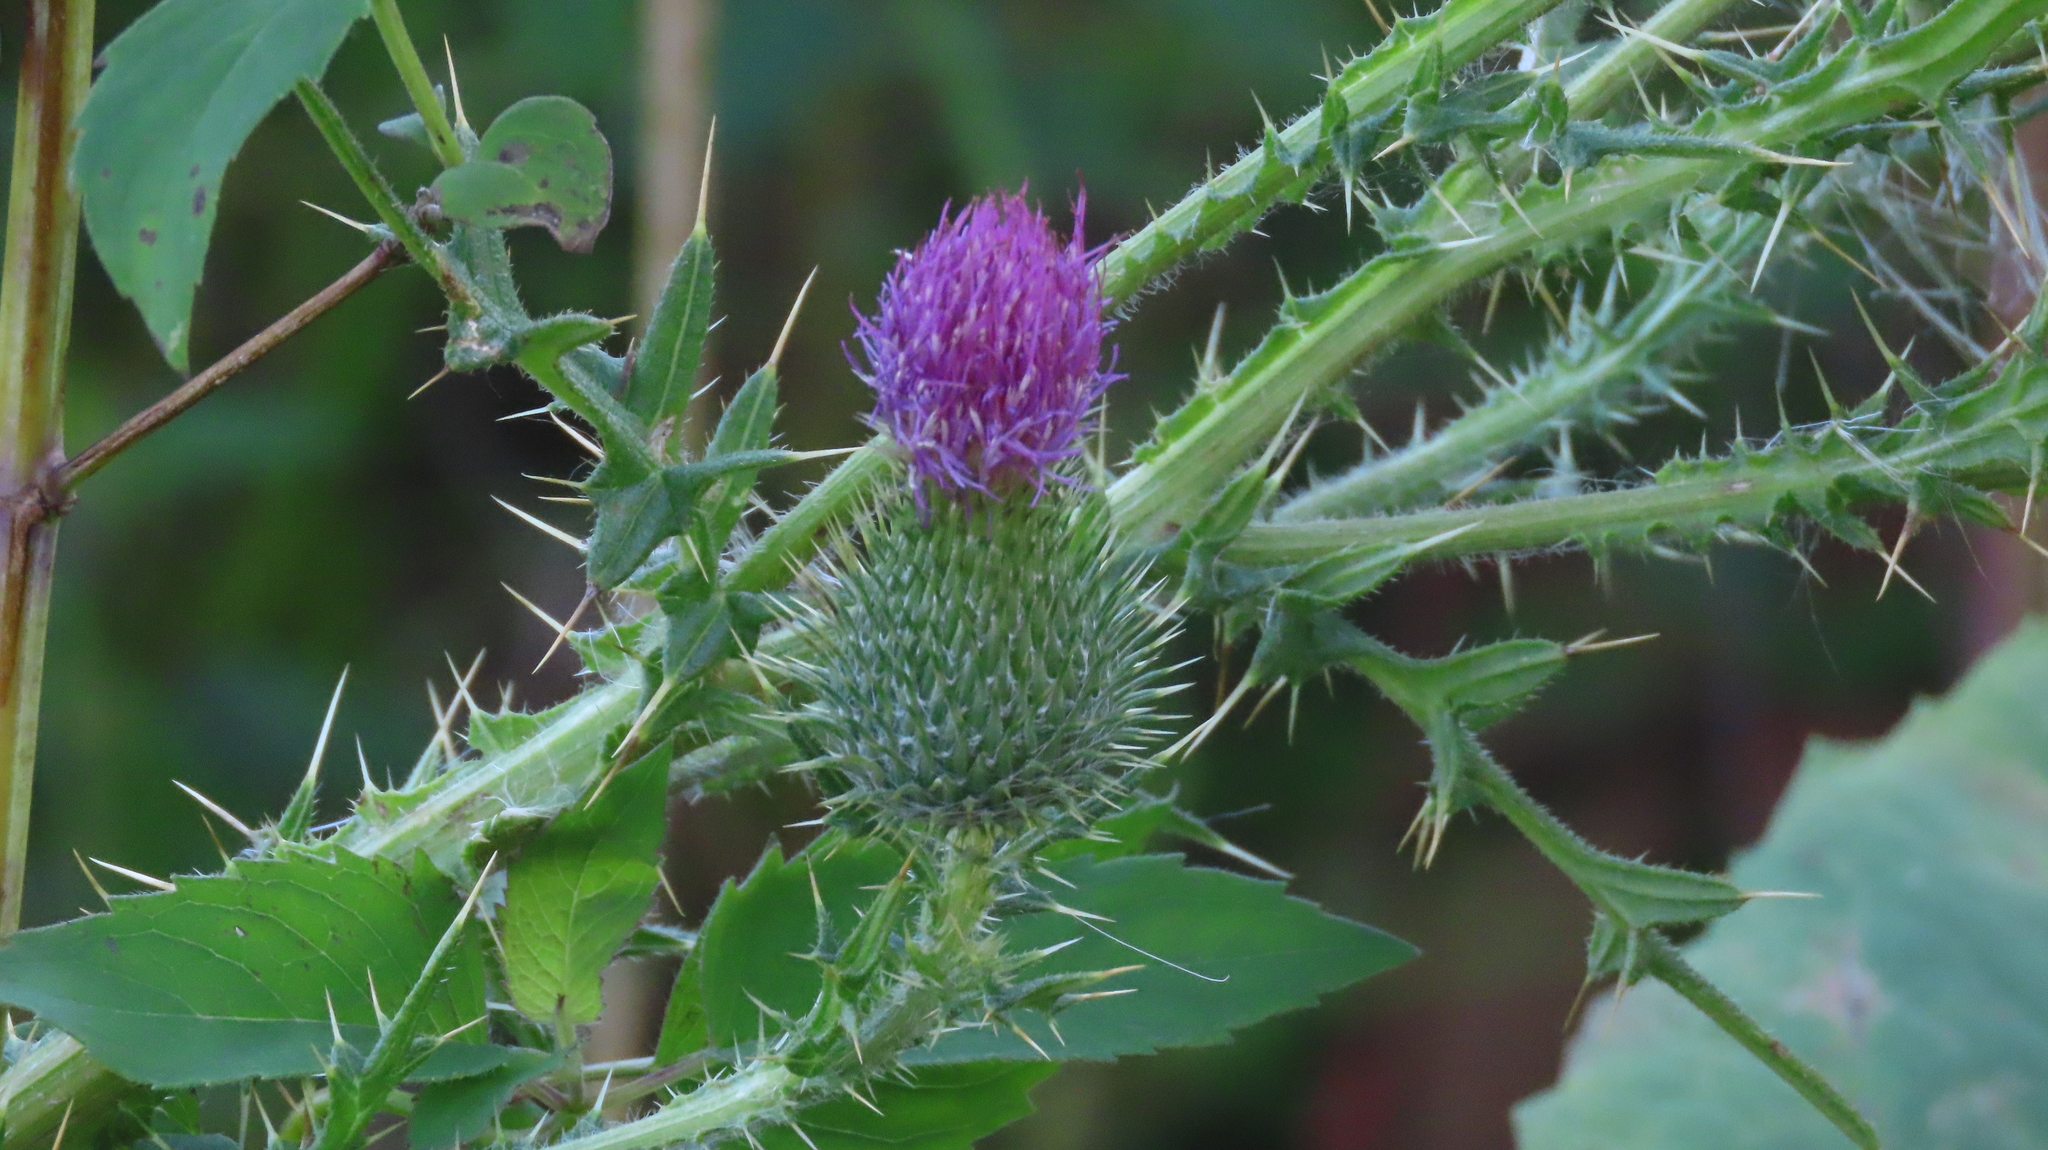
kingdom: Plantae
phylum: Tracheophyta
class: Magnoliopsida
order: Asterales
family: Asteraceae
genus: Cirsium
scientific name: Cirsium vulgare
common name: Bull thistle
